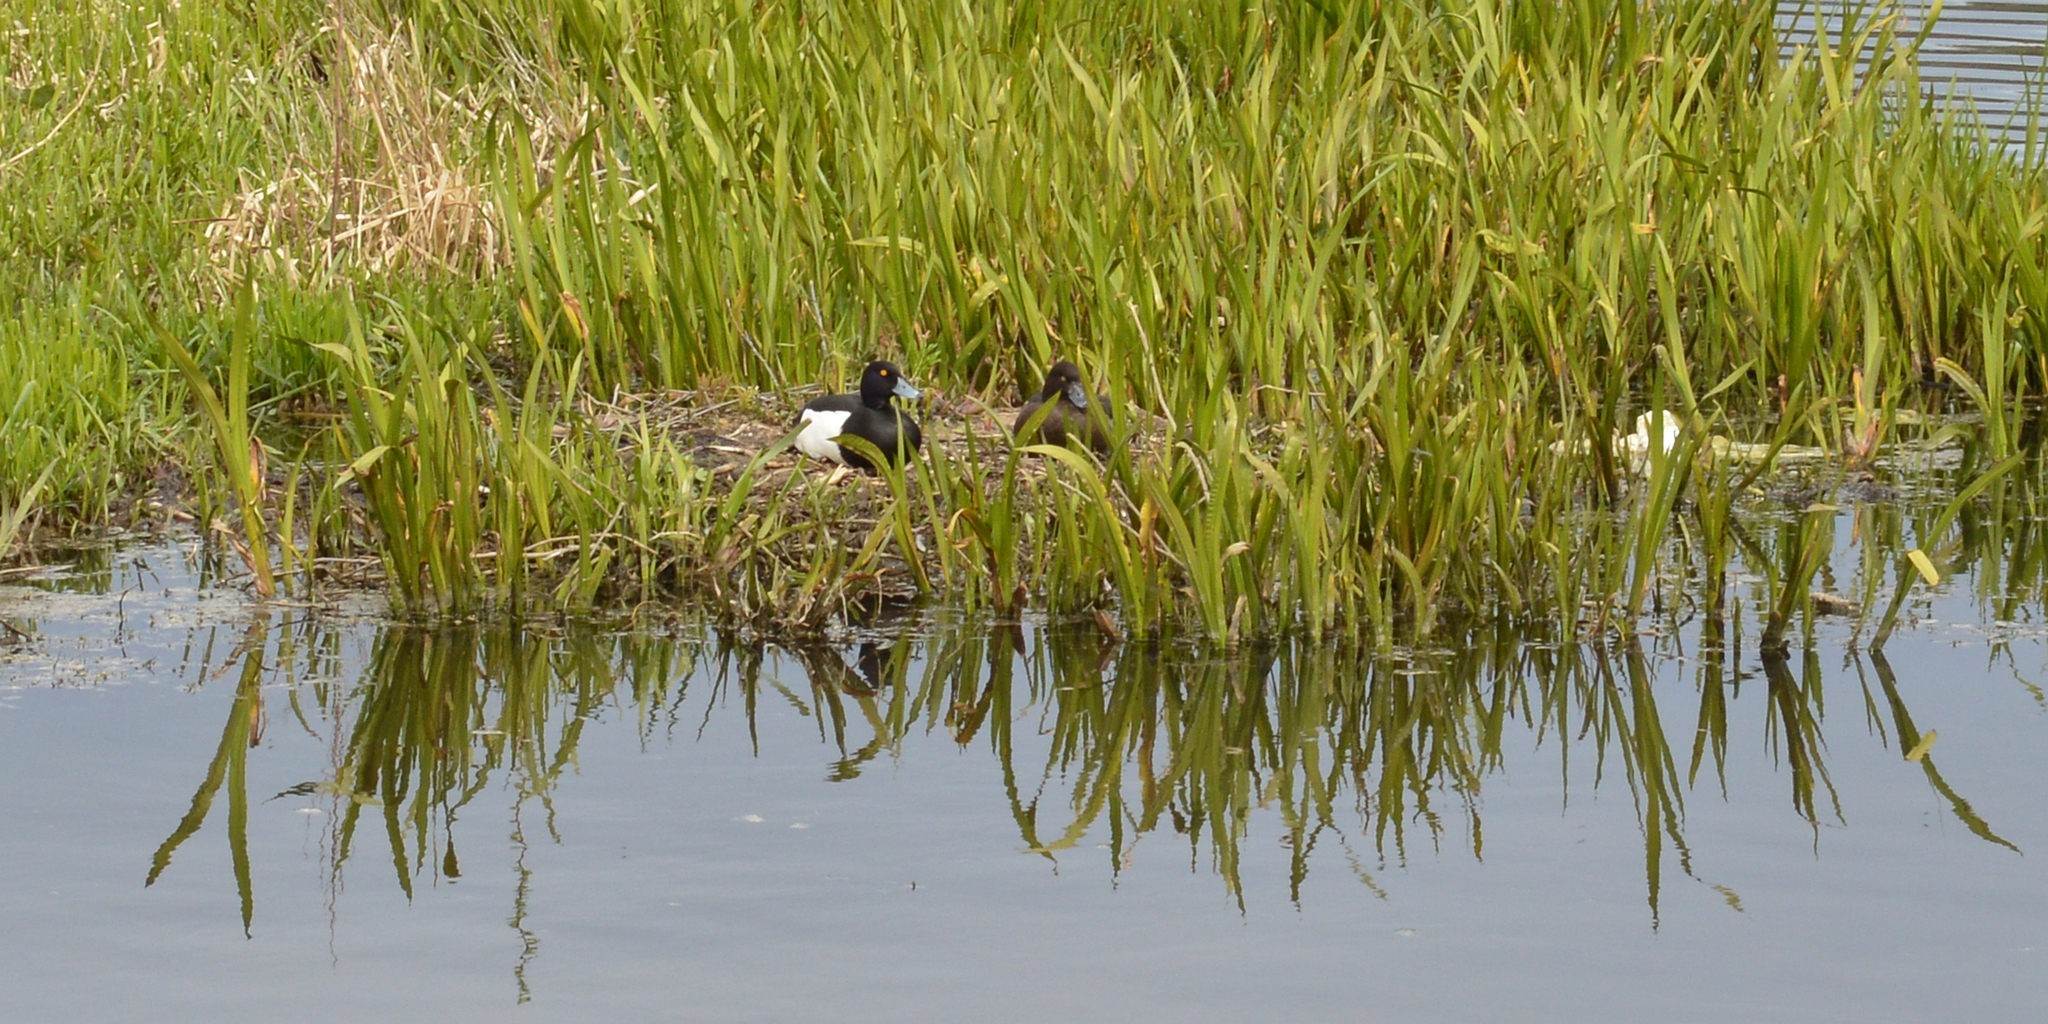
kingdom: Animalia
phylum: Chordata
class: Aves
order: Anseriformes
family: Anatidae
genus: Aythya
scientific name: Aythya fuligula
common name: Tufted duck
